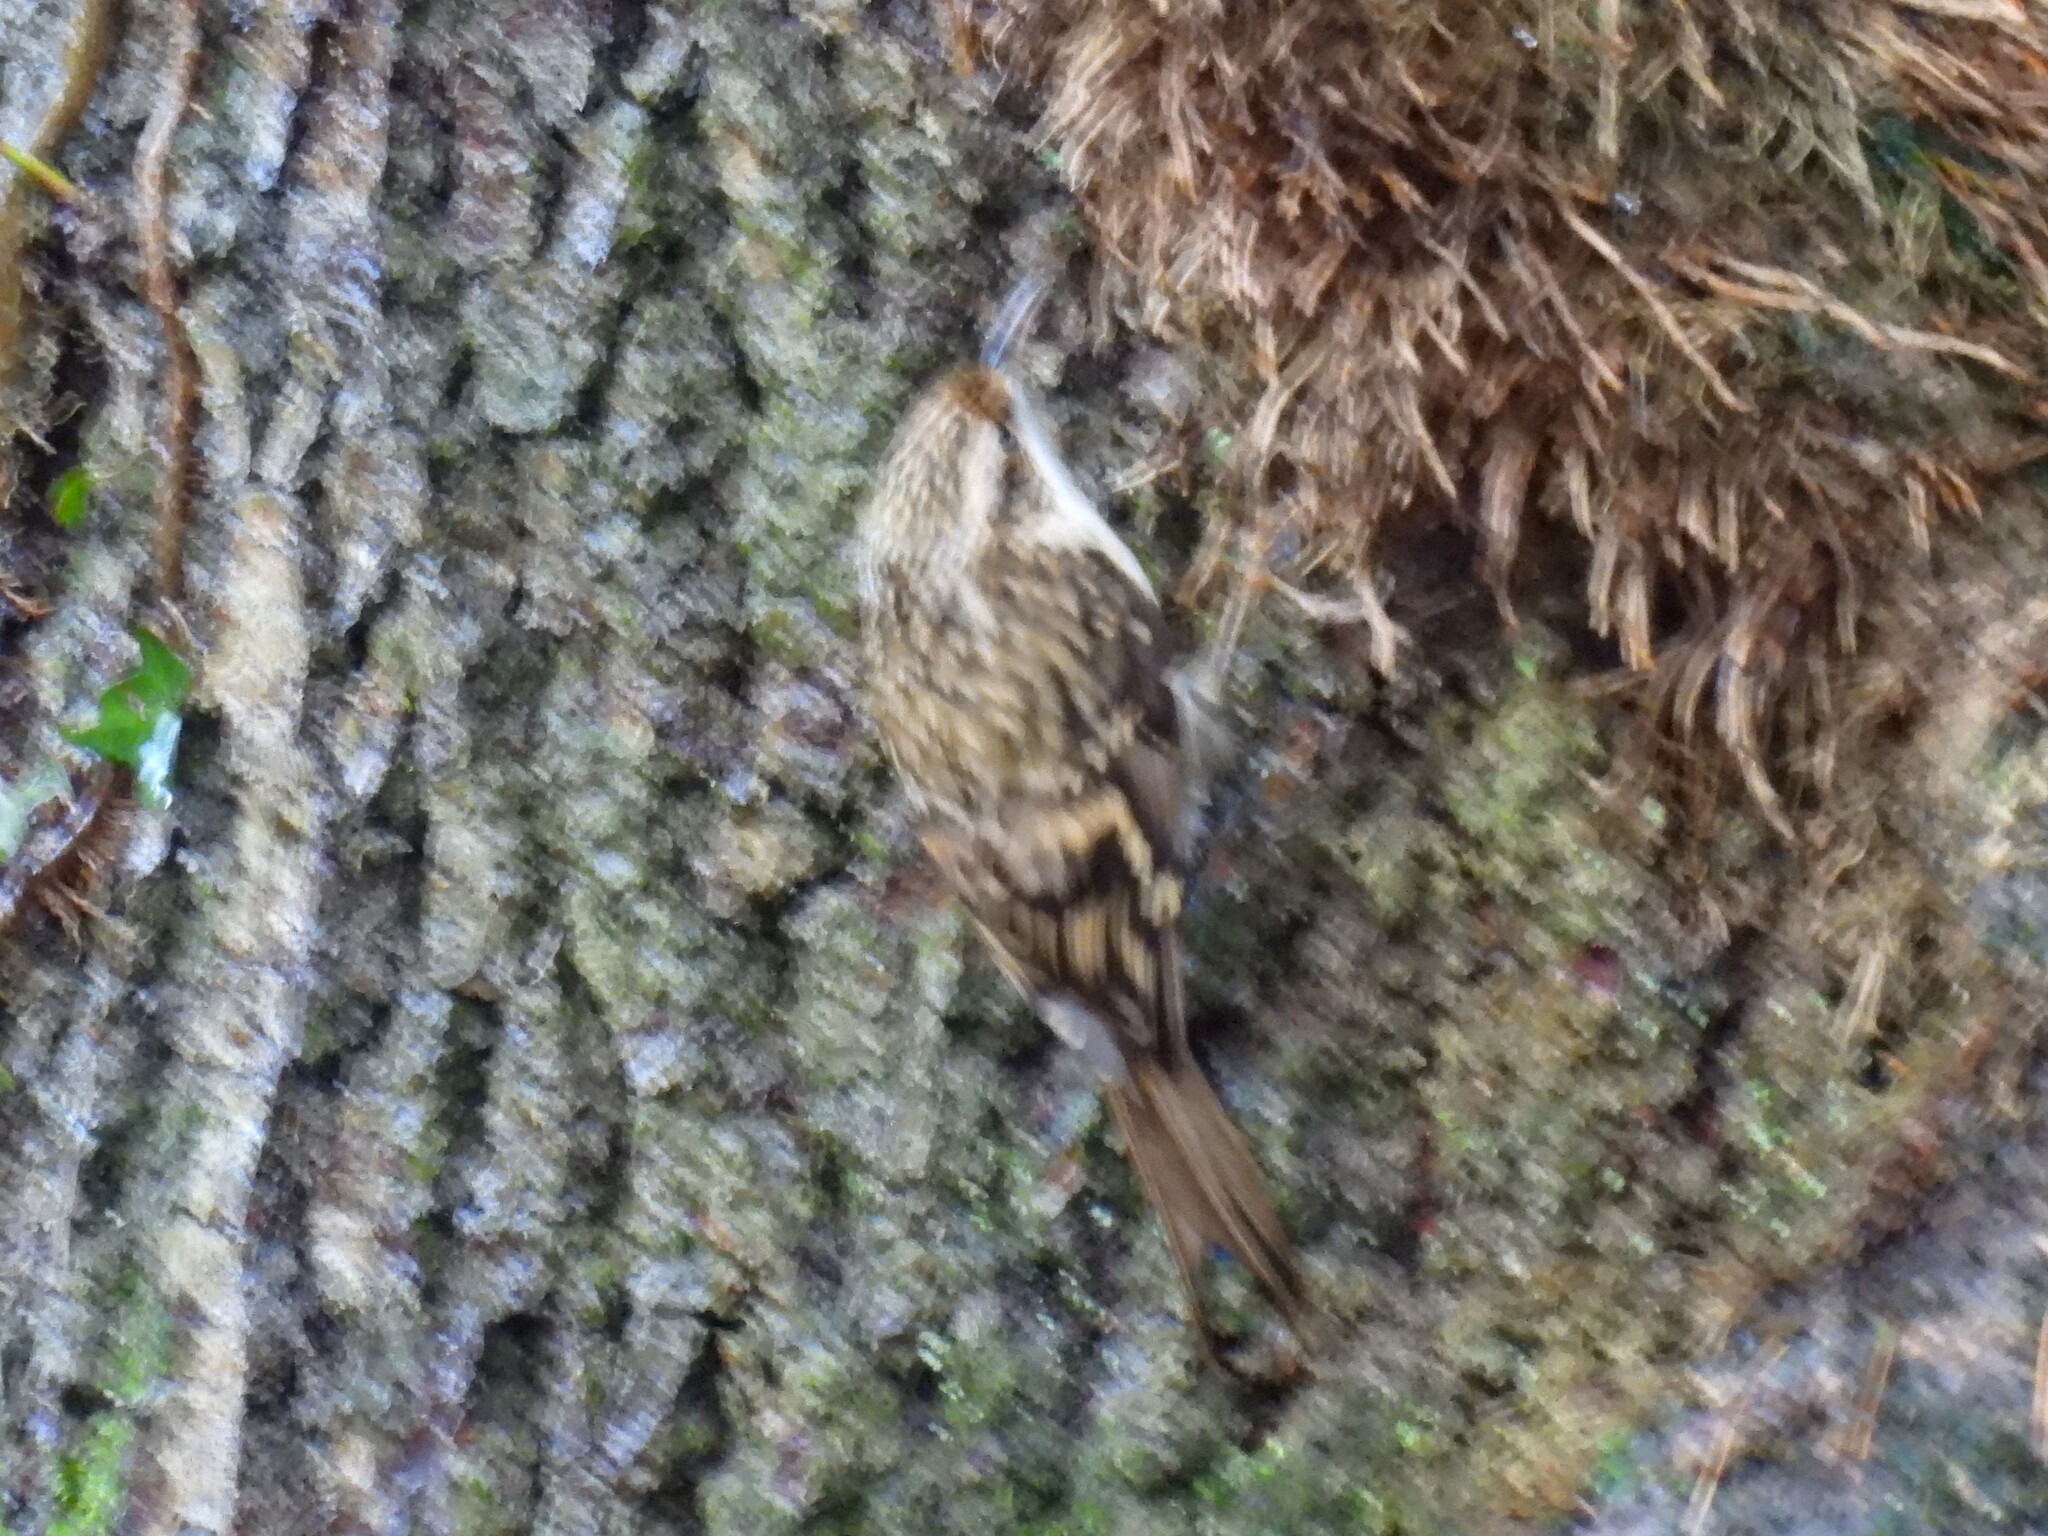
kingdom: Animalia
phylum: Chordata
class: Aves
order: Passeriformes
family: Certhiidae
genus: Certhia
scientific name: Certhia familiaris
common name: Eurasian treecreeper
